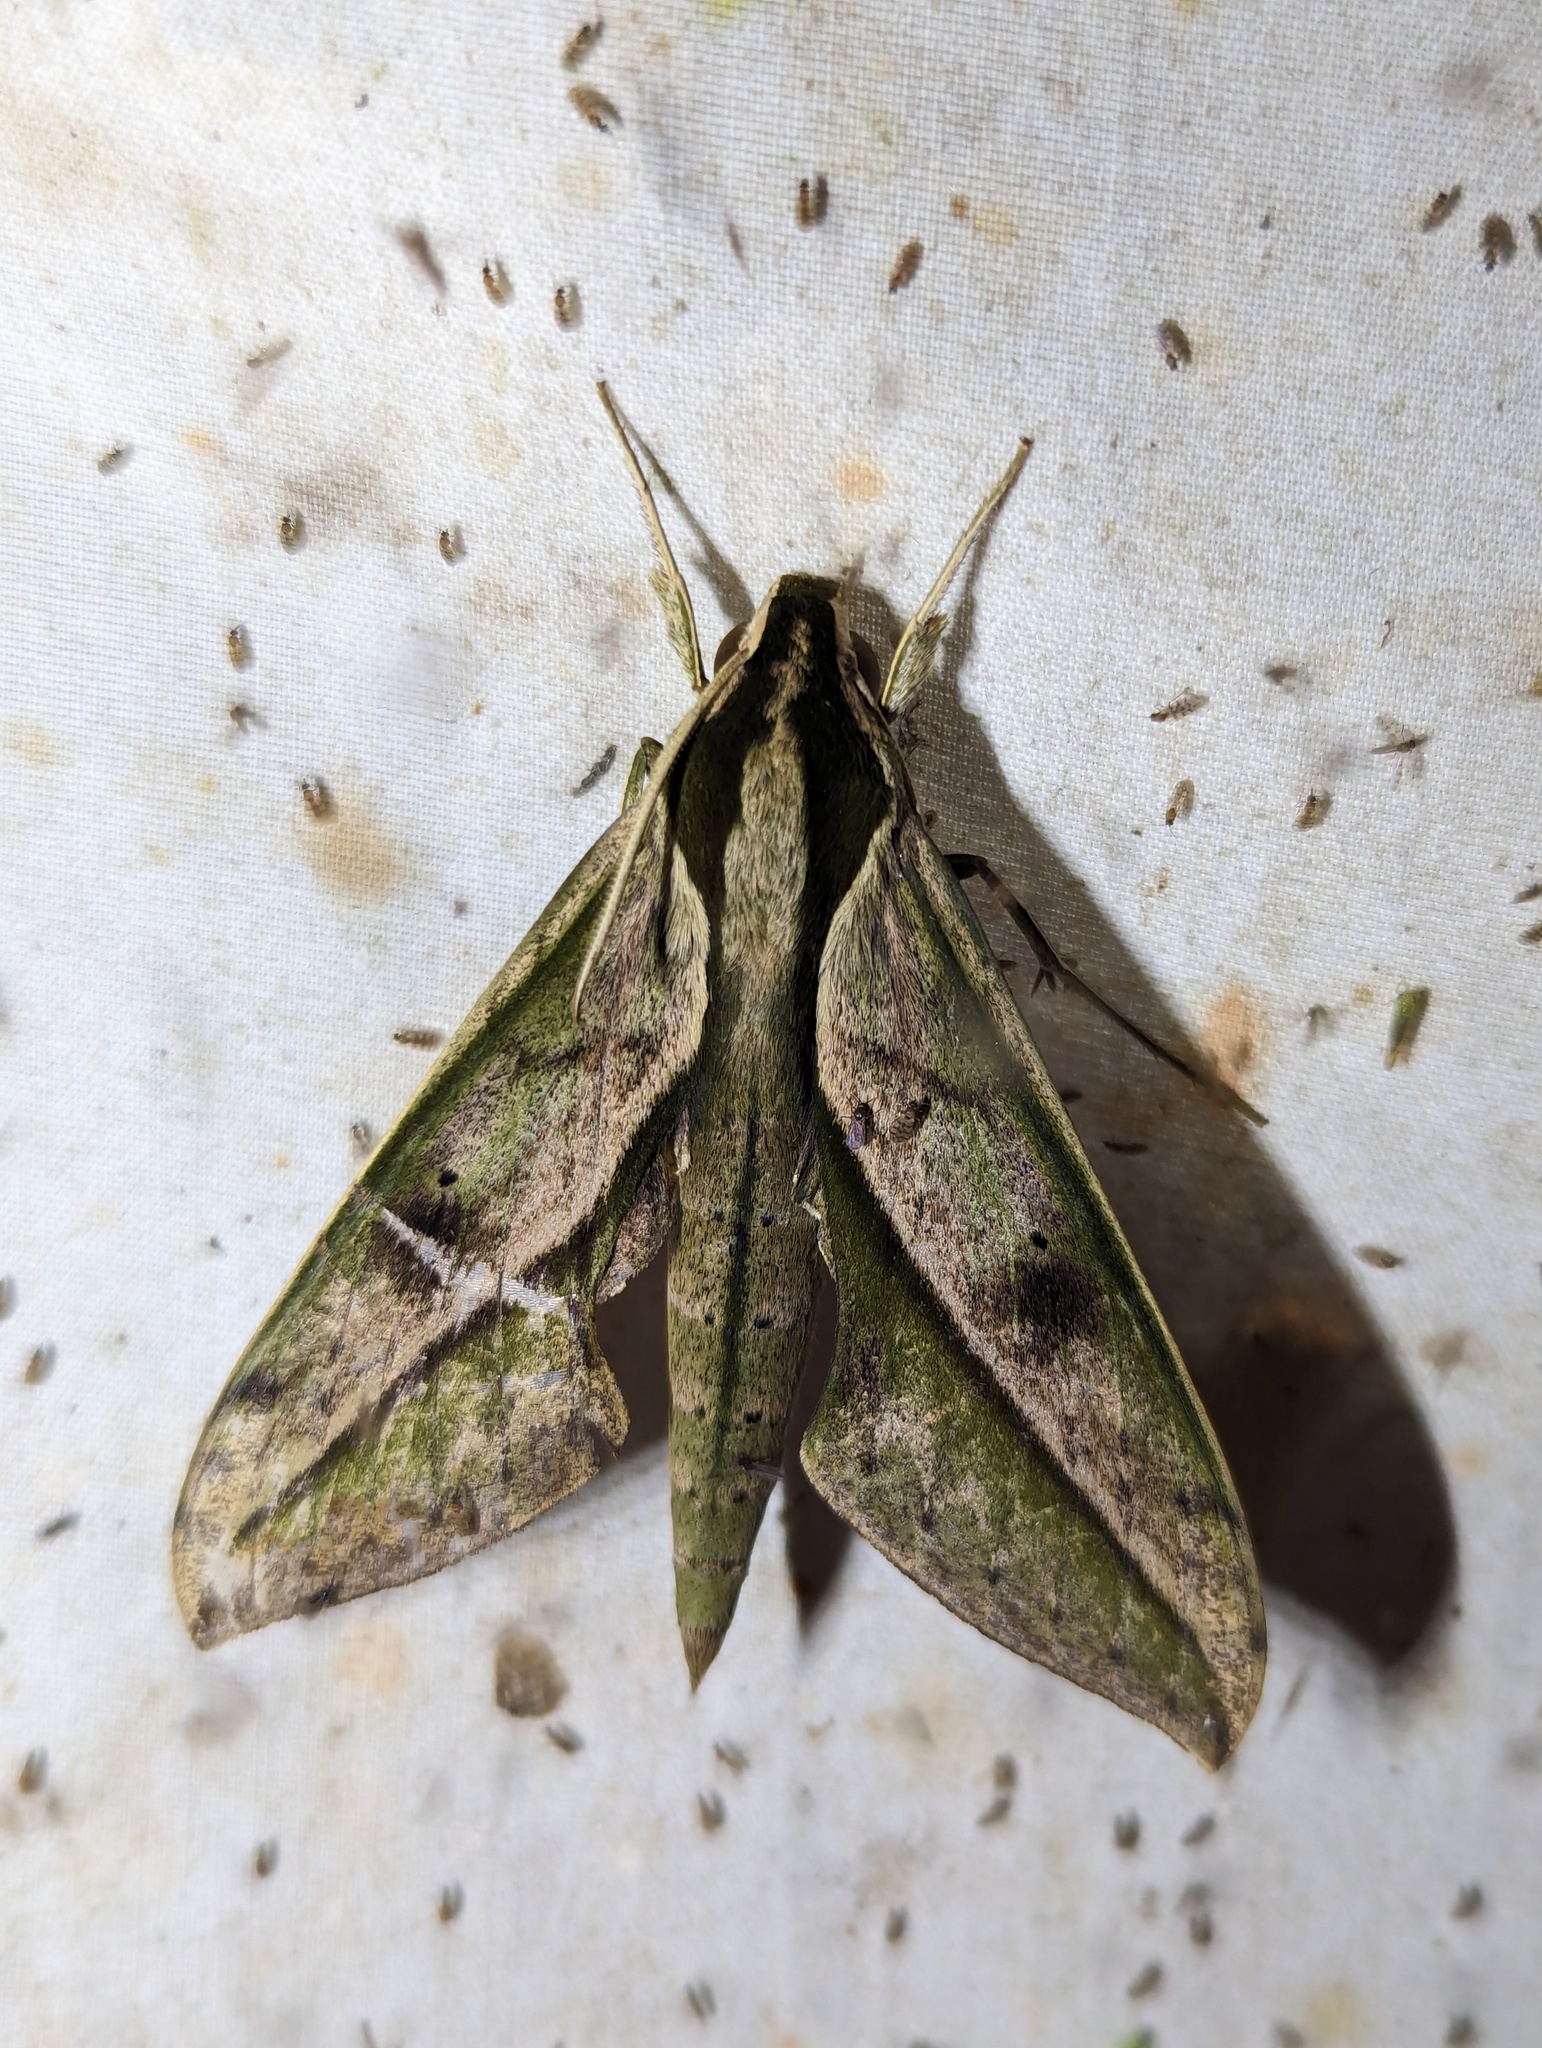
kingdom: Animalia
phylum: Arthropoda
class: Insecta
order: Lepidoptera
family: Sphingidae
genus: Xylophanes
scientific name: Xylophanes docilis
